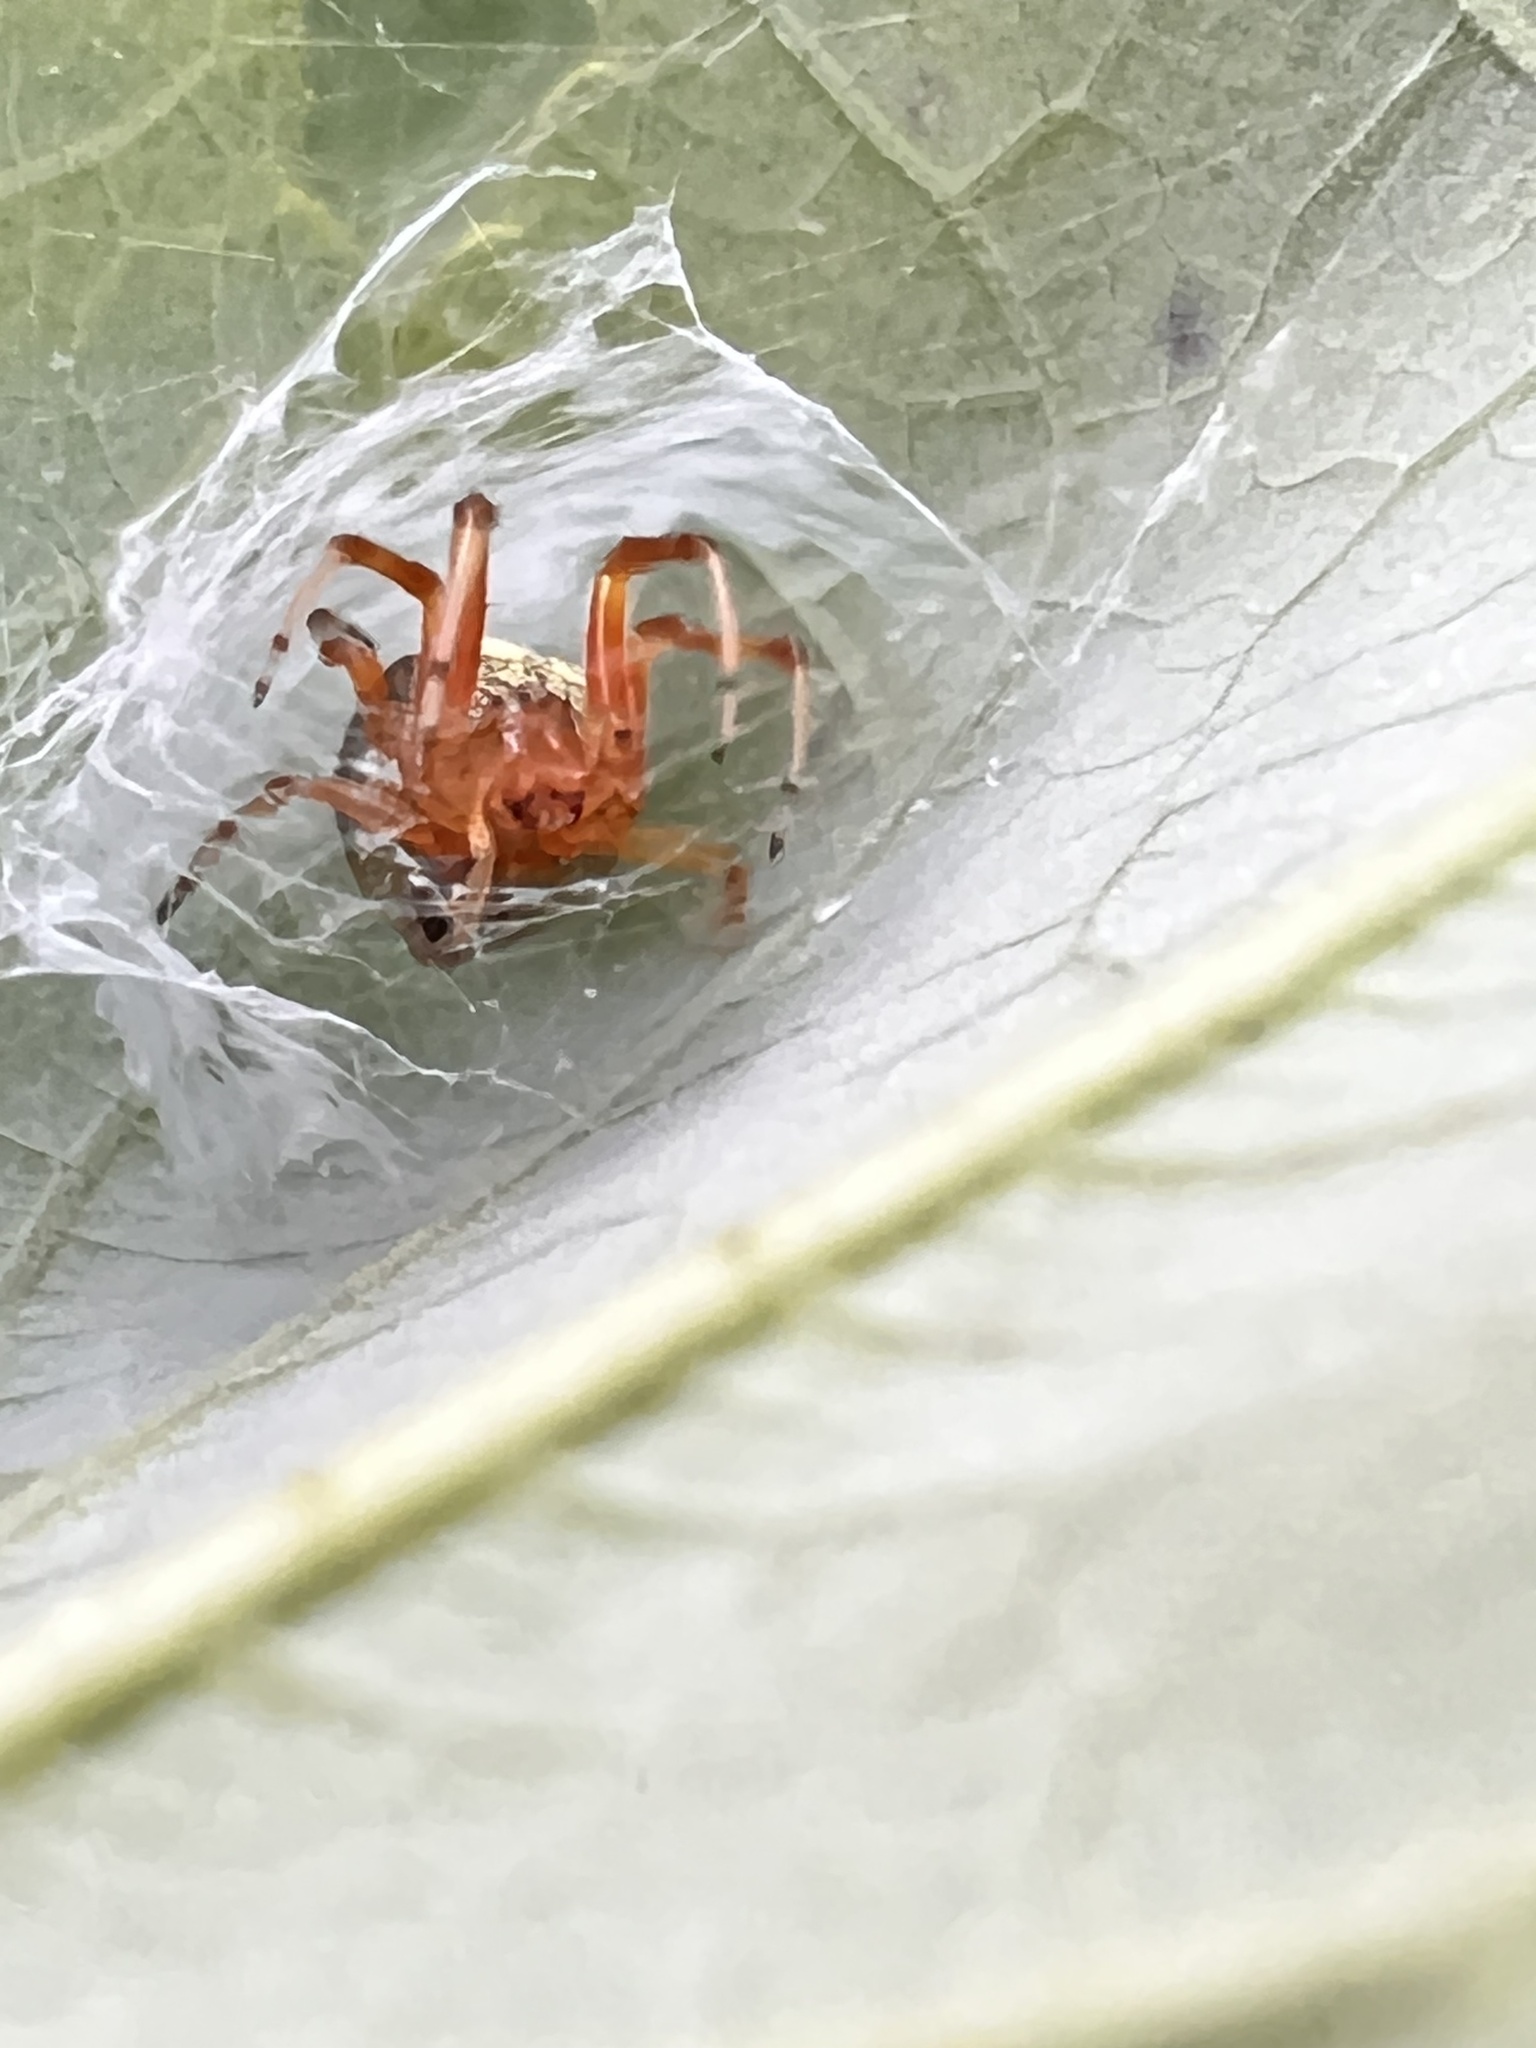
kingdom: Animalia
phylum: Arthropoda
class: Arachnida
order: Araneae
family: Araneidae
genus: Araneus
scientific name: Araneus thaddeus
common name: Lattice orbweaver
